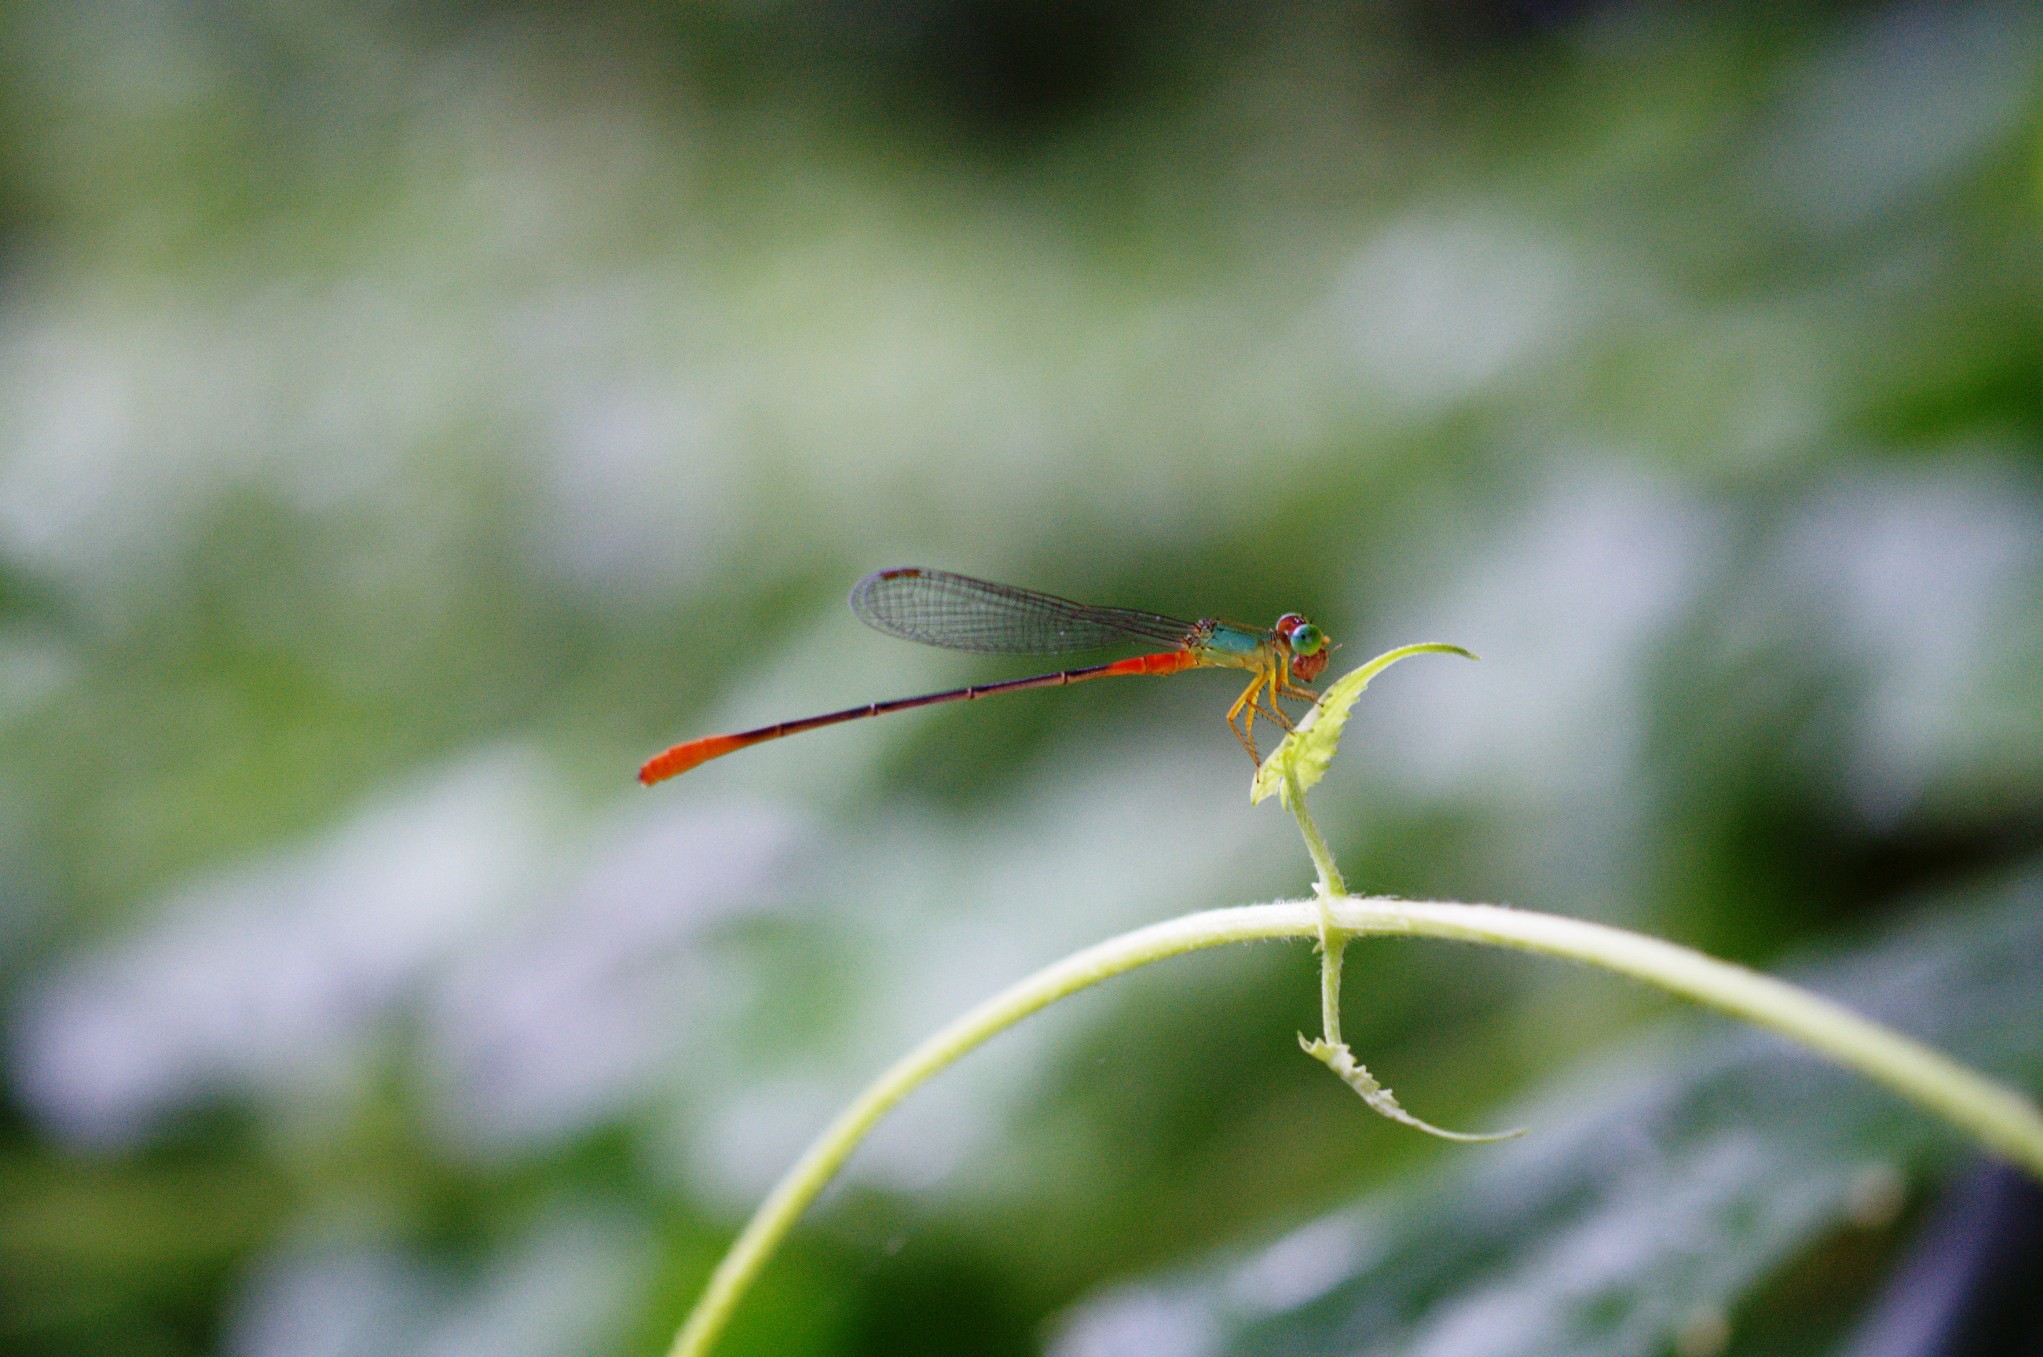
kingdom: Animalia
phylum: Arthropoda
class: Insecta
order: Odonata
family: Coenagrionidae
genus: Ceriagrion
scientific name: Ceriagrion cerinorubellum
